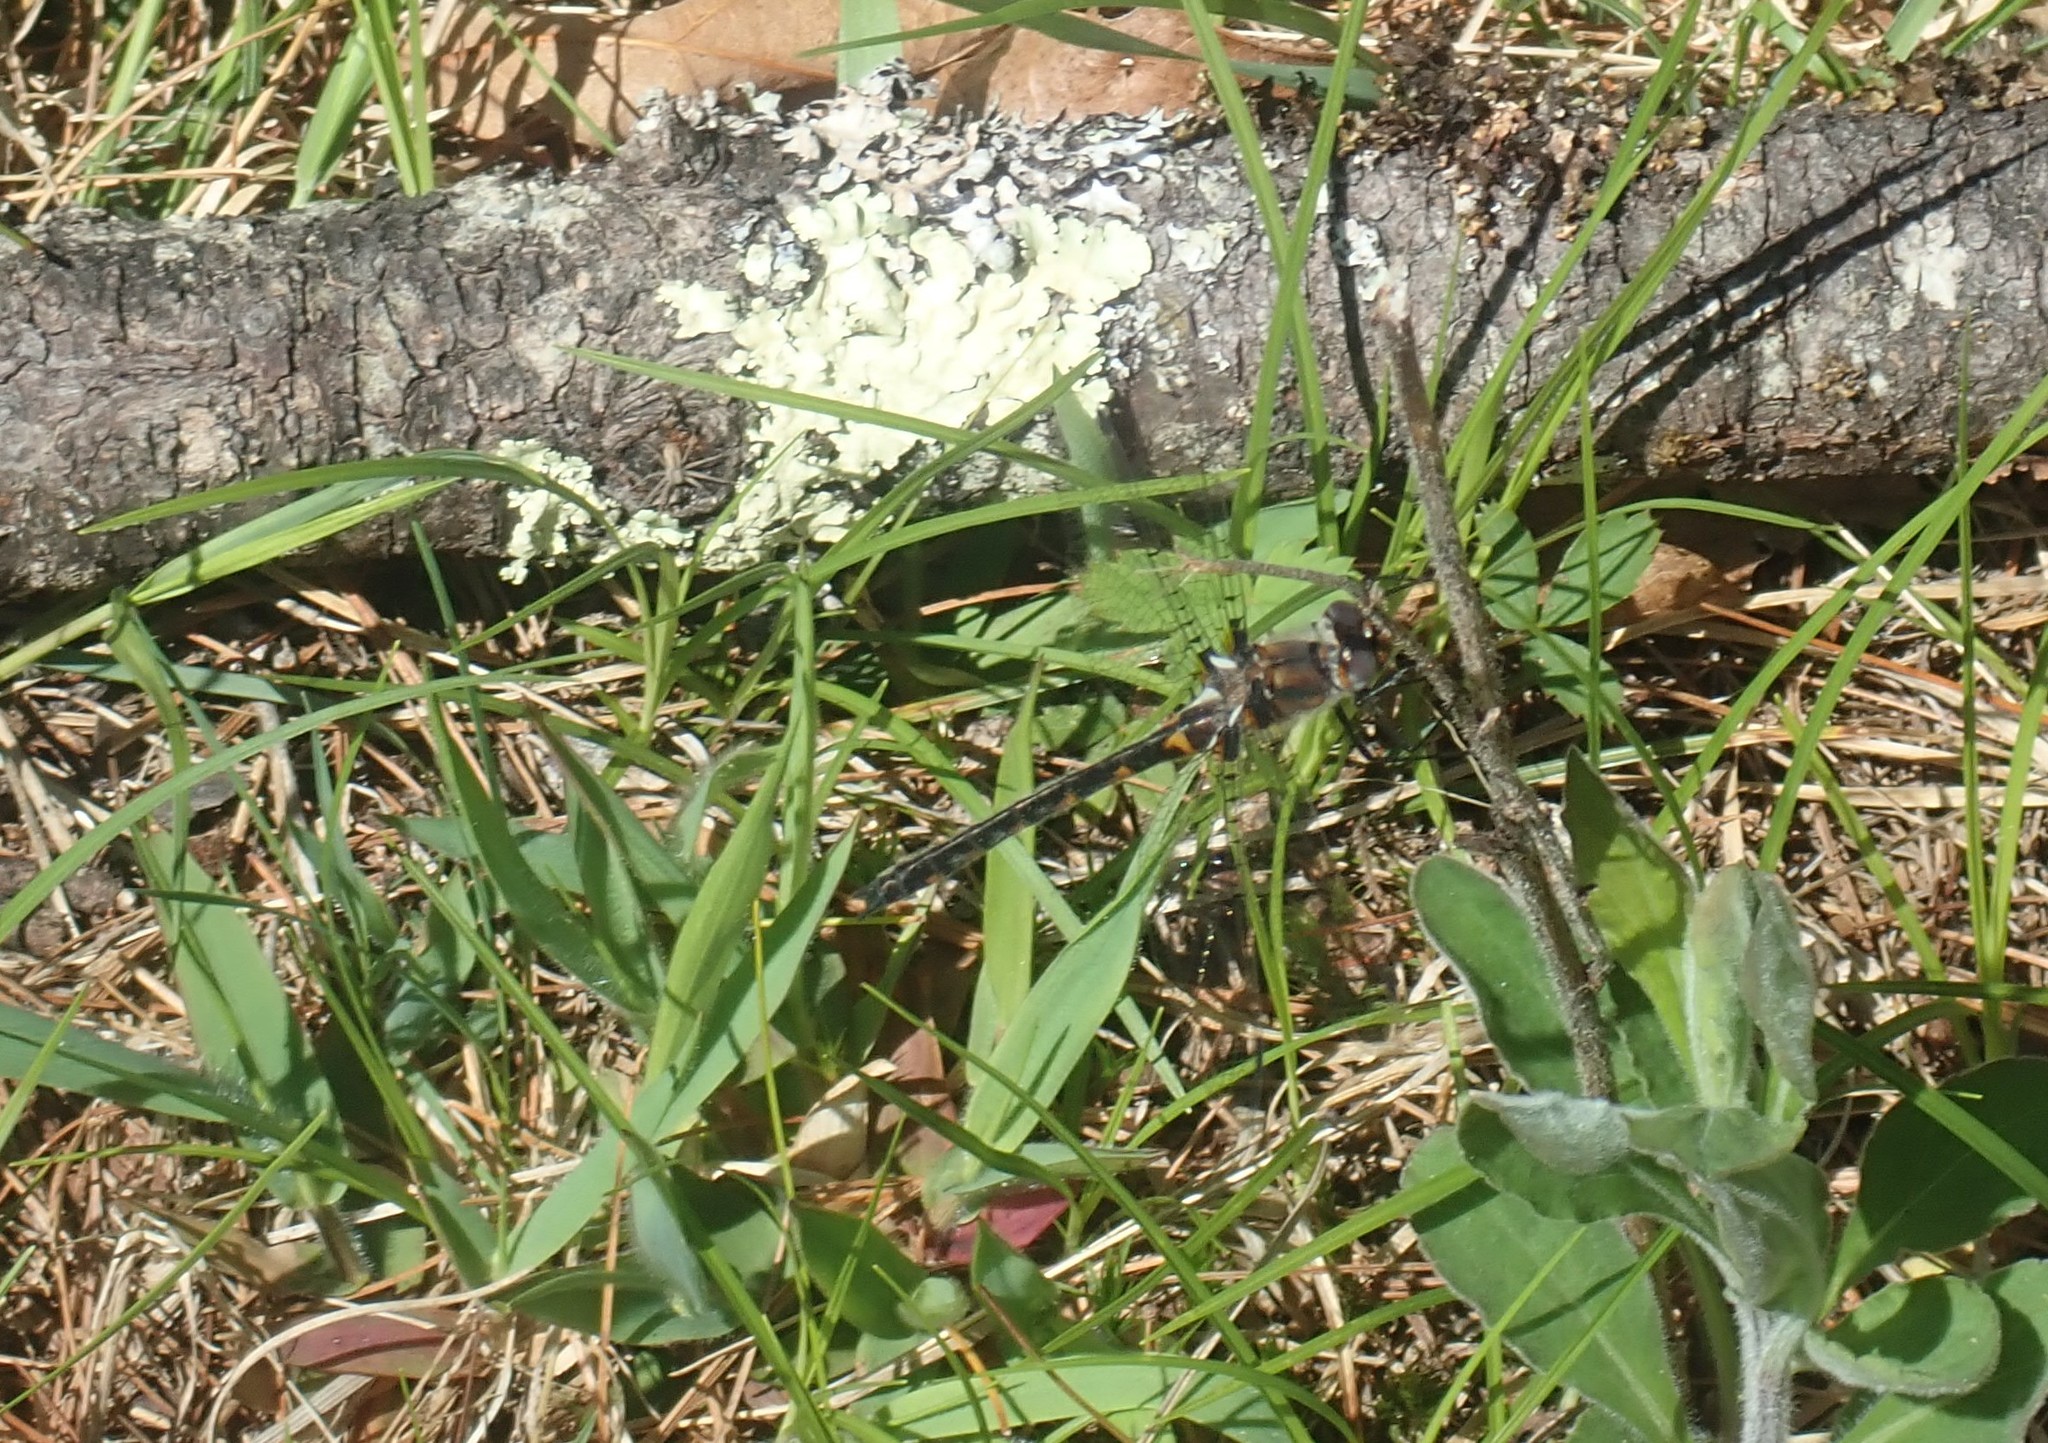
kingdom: Animalia
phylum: Arthropoda
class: Insecta
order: Odonata
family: Corduliidae
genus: Helocordulia
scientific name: Helocordulia uhleri
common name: Uhler's sundragon
